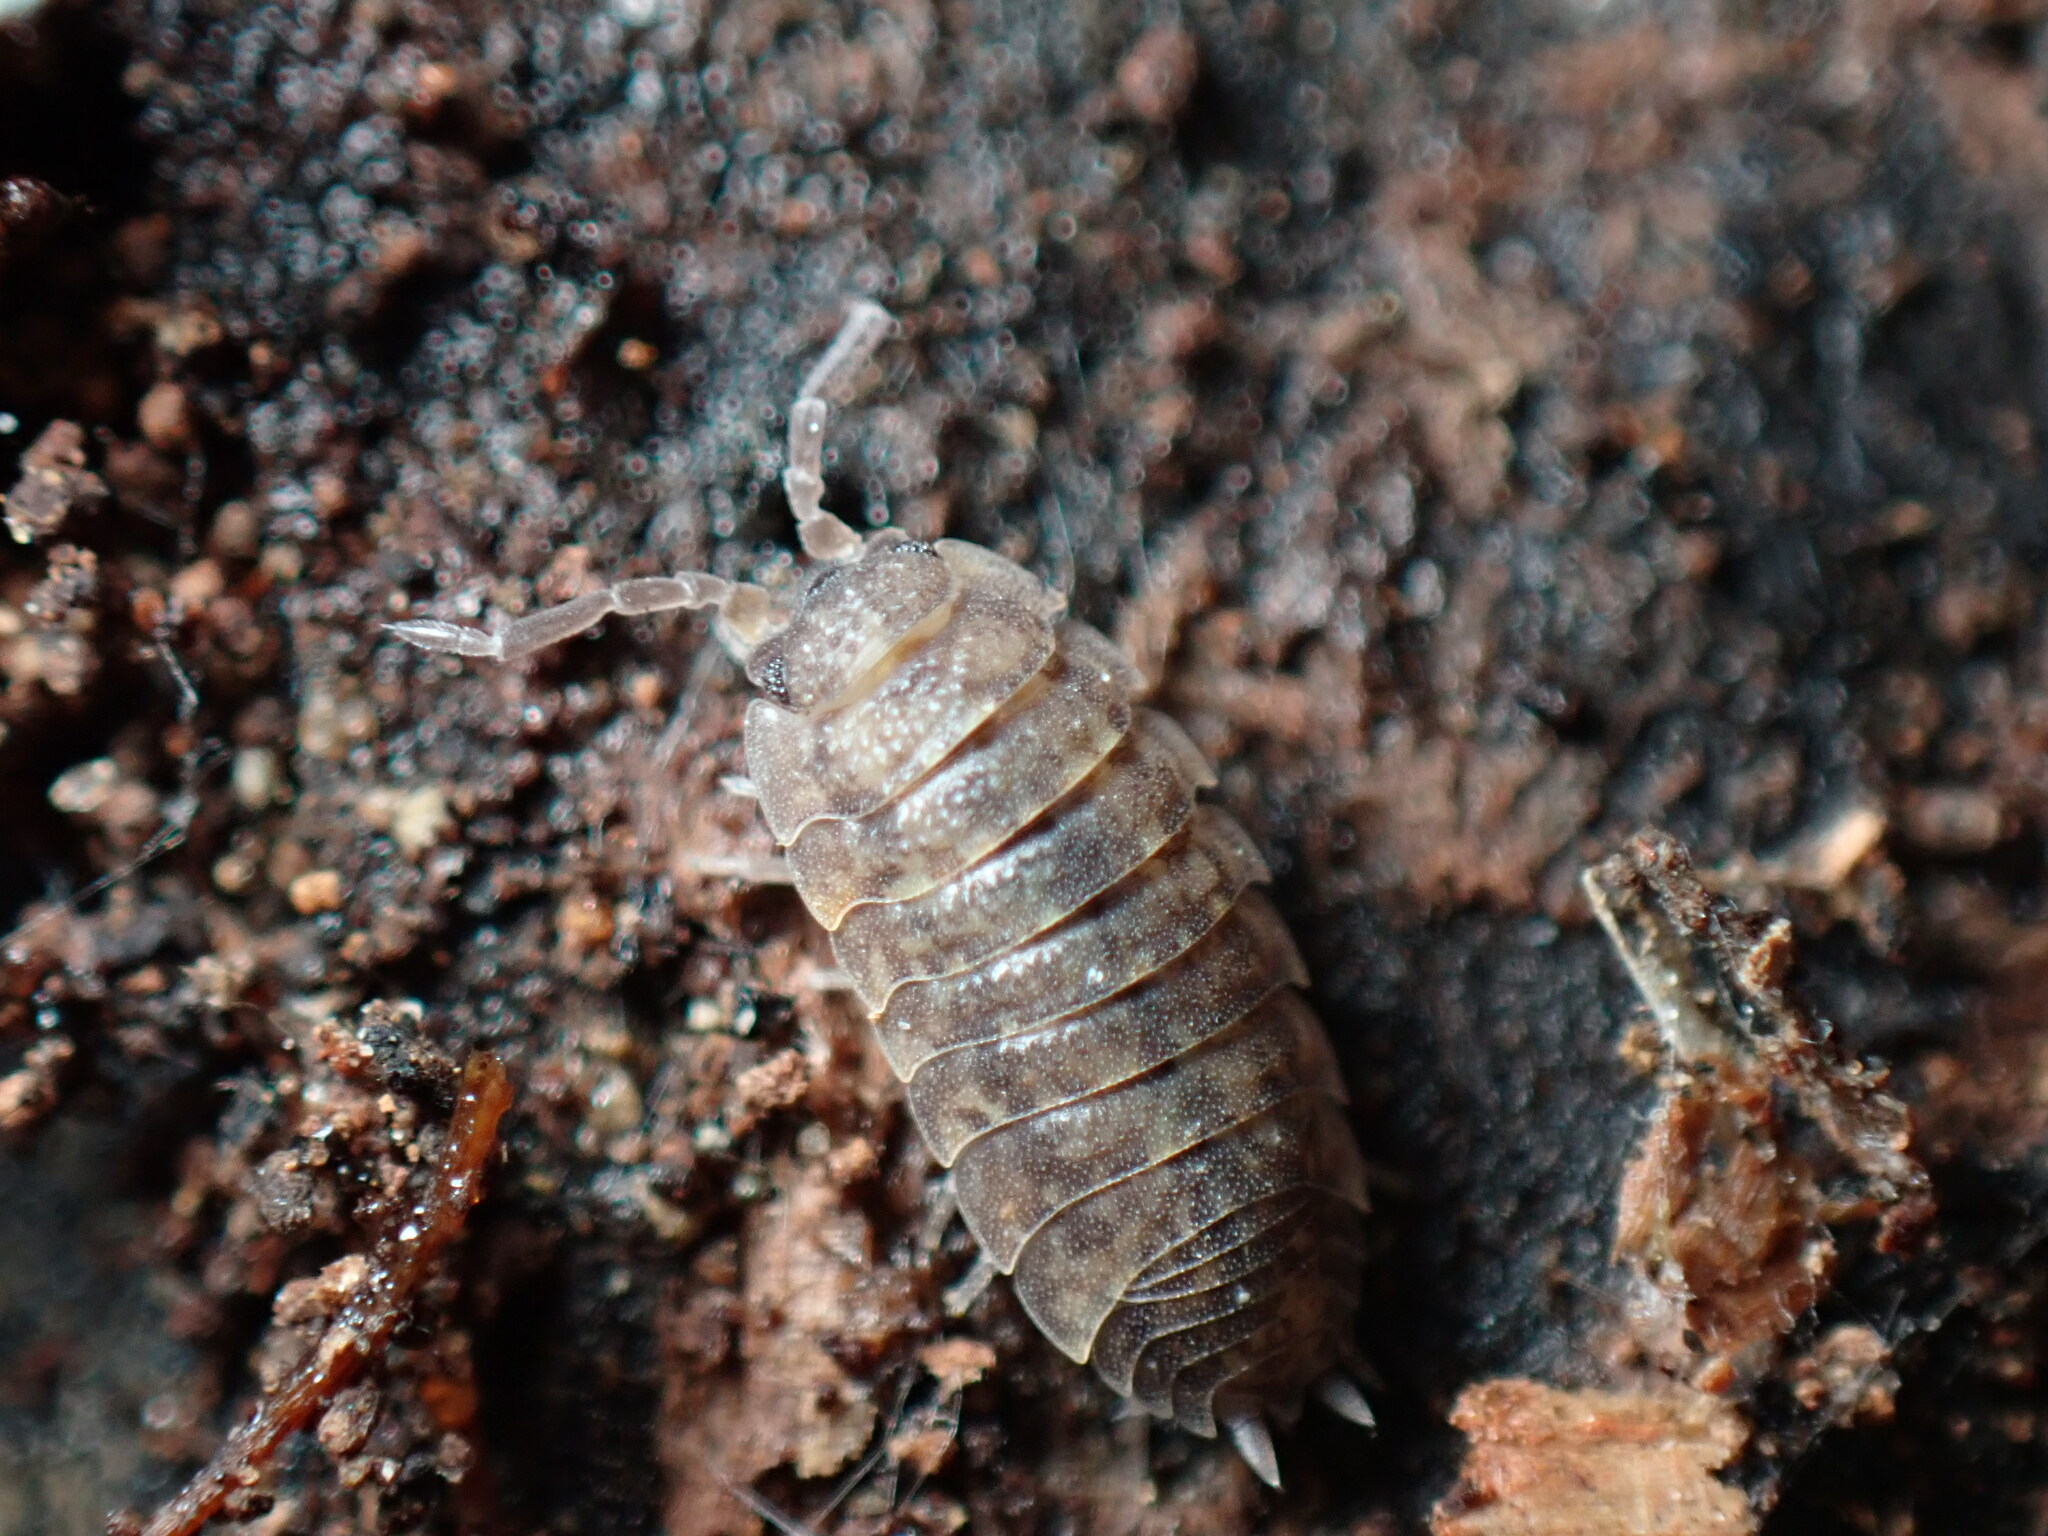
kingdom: Animalia
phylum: Arthropoda
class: Malacostraca
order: Isopoda
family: Porcellionidae
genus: Porcellio
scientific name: Porcellio scaber
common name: Common rough woodlouse
